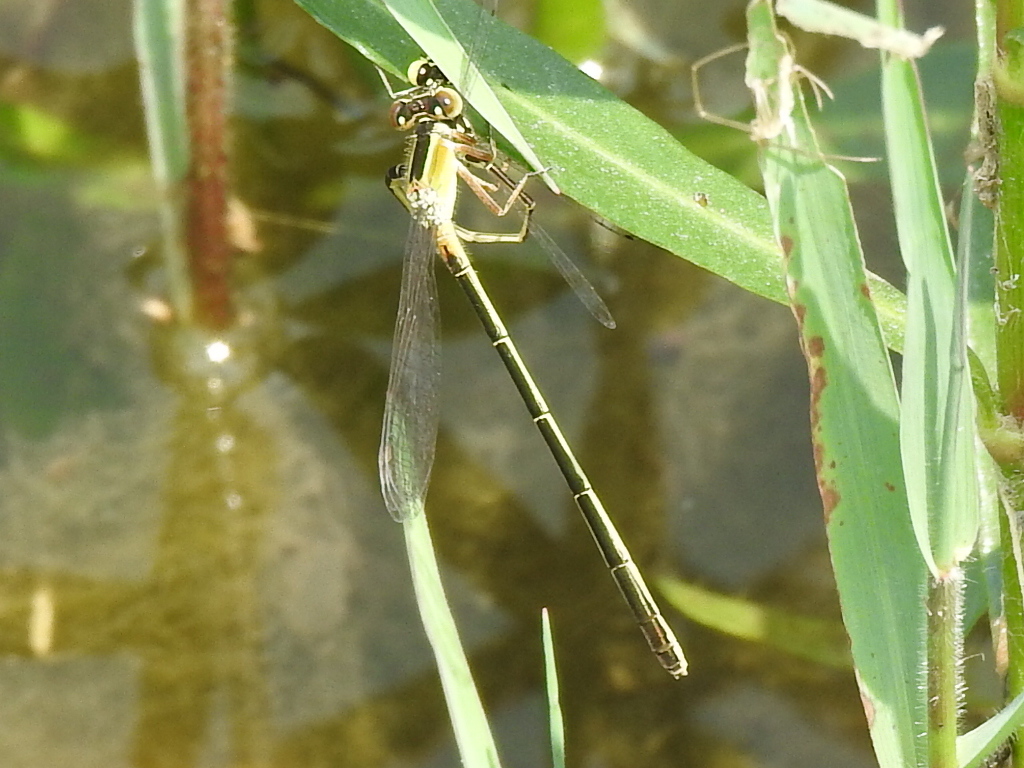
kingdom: Animalia
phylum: Arthropoda
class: Insecta
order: Odonata
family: Coenagrionidae
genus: Ischnura
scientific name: Ischnura ramburii
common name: Rambur's forktail
